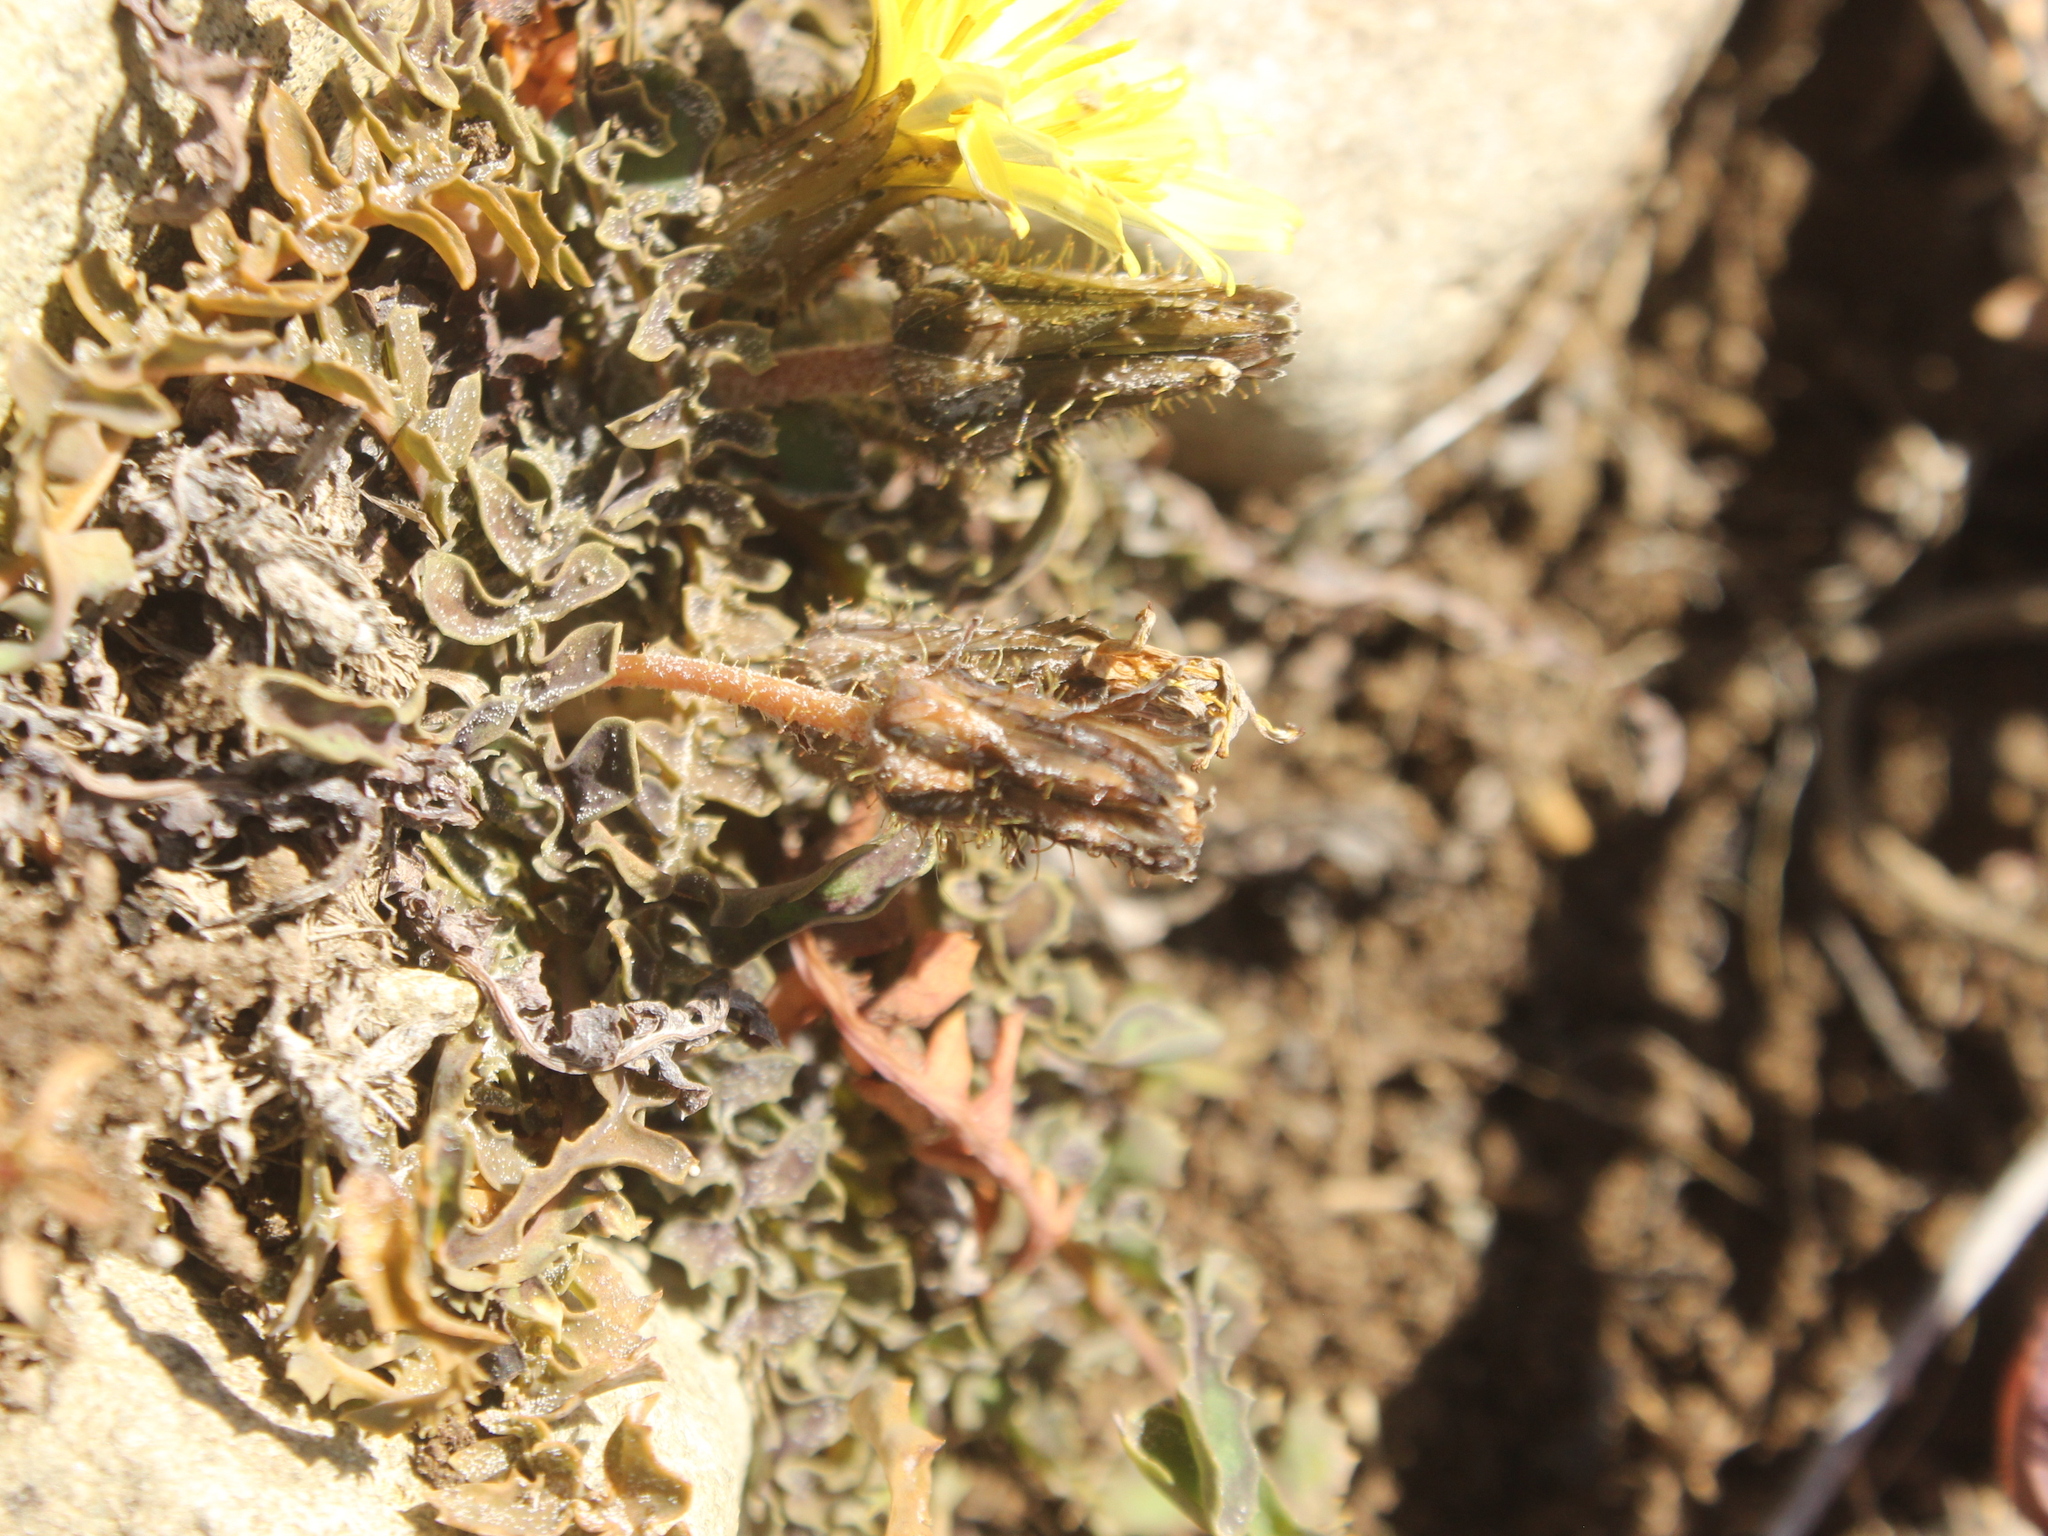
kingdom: Plantae
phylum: Tracheophyta
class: Magnoliopsida
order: Asterales
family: Asteraceae
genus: Sonchus
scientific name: Sonchus novae-zelandiae
